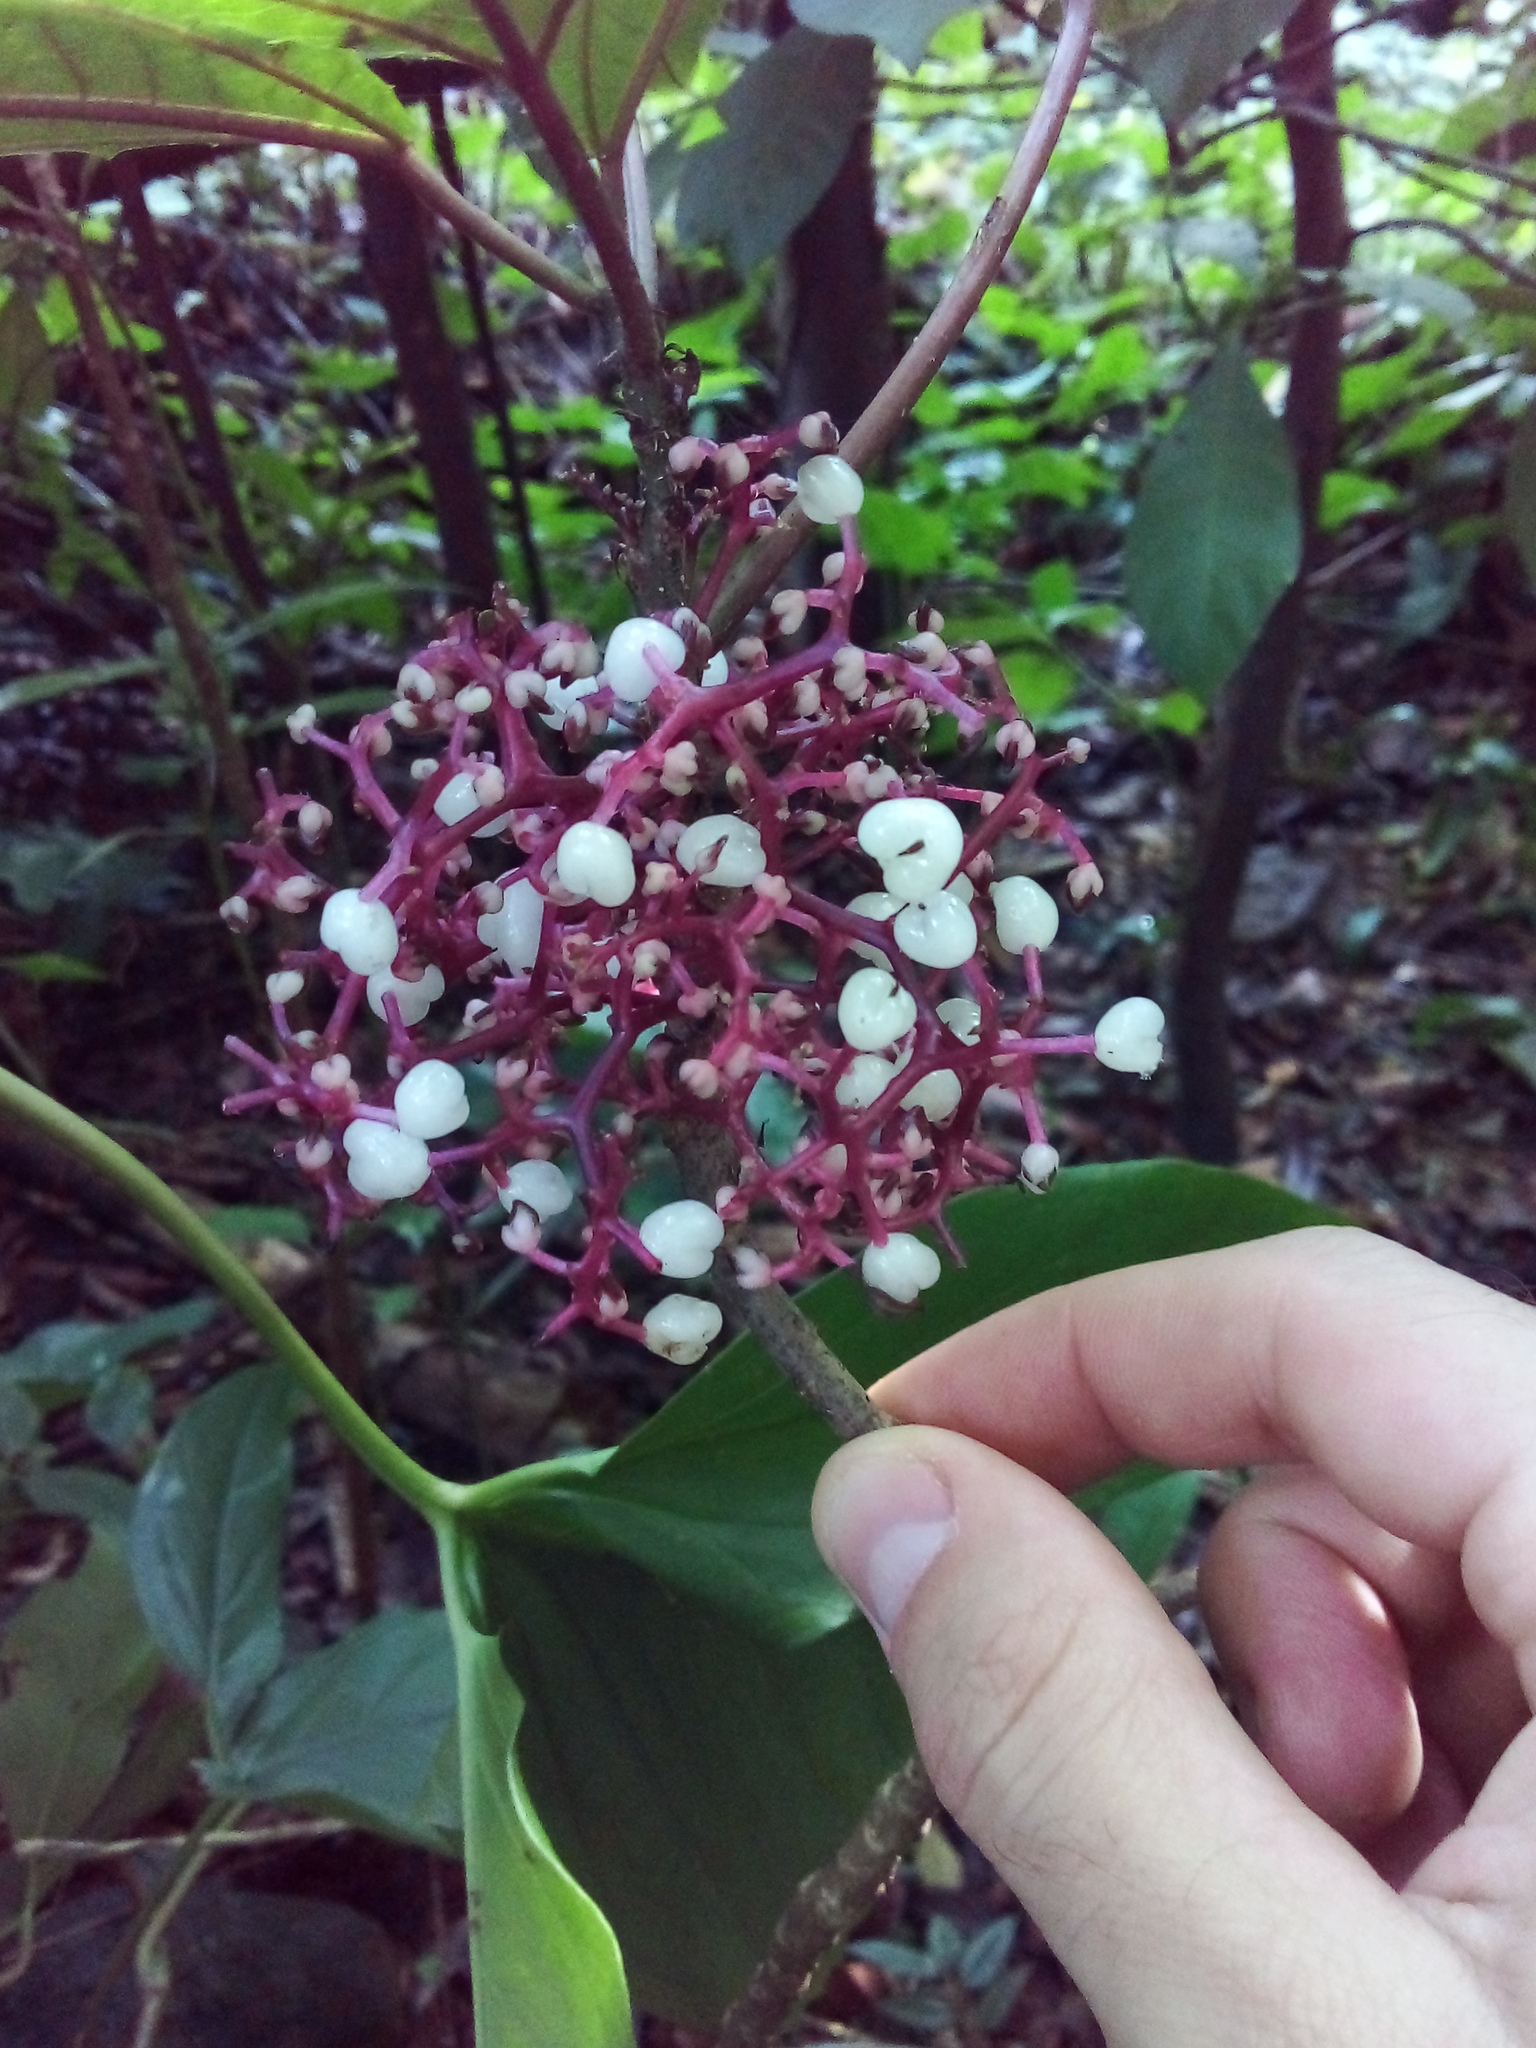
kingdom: Plantae
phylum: Tracheophyta
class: Magnoliopsida
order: Rosales
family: Urticaceae
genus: Urera
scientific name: Urera nitida
